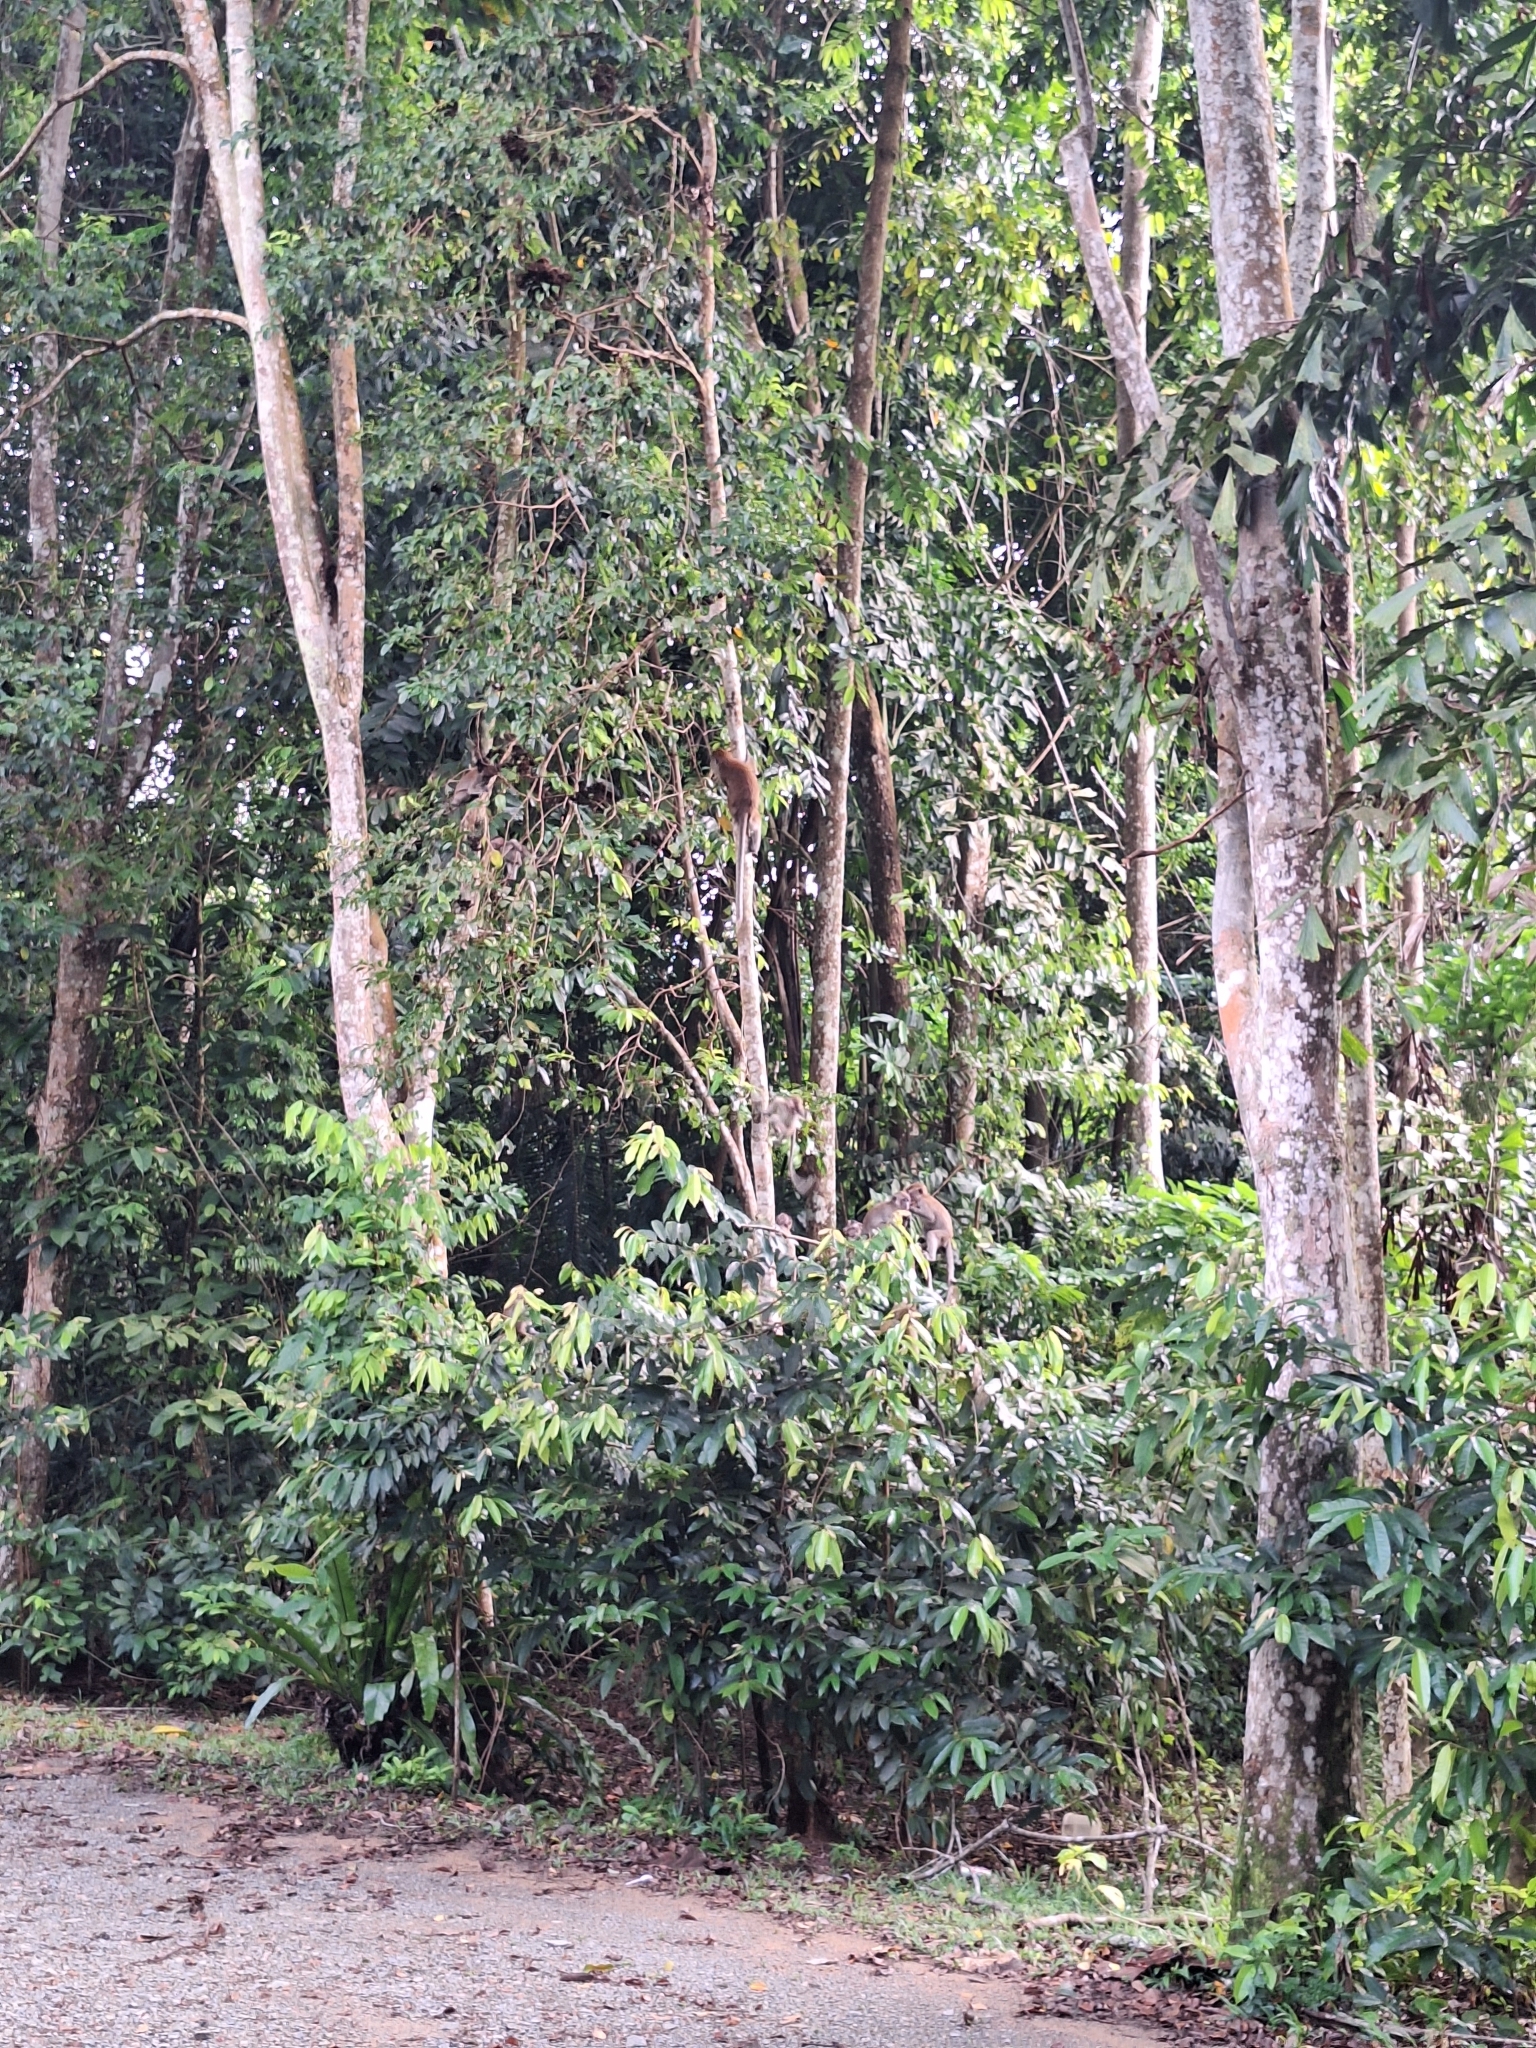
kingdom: Animalia
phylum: Chordata
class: Mammalia
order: Primates
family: Cercopithecidae
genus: Macaca
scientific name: Macaca fascicularis
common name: Crab-eating macaque
